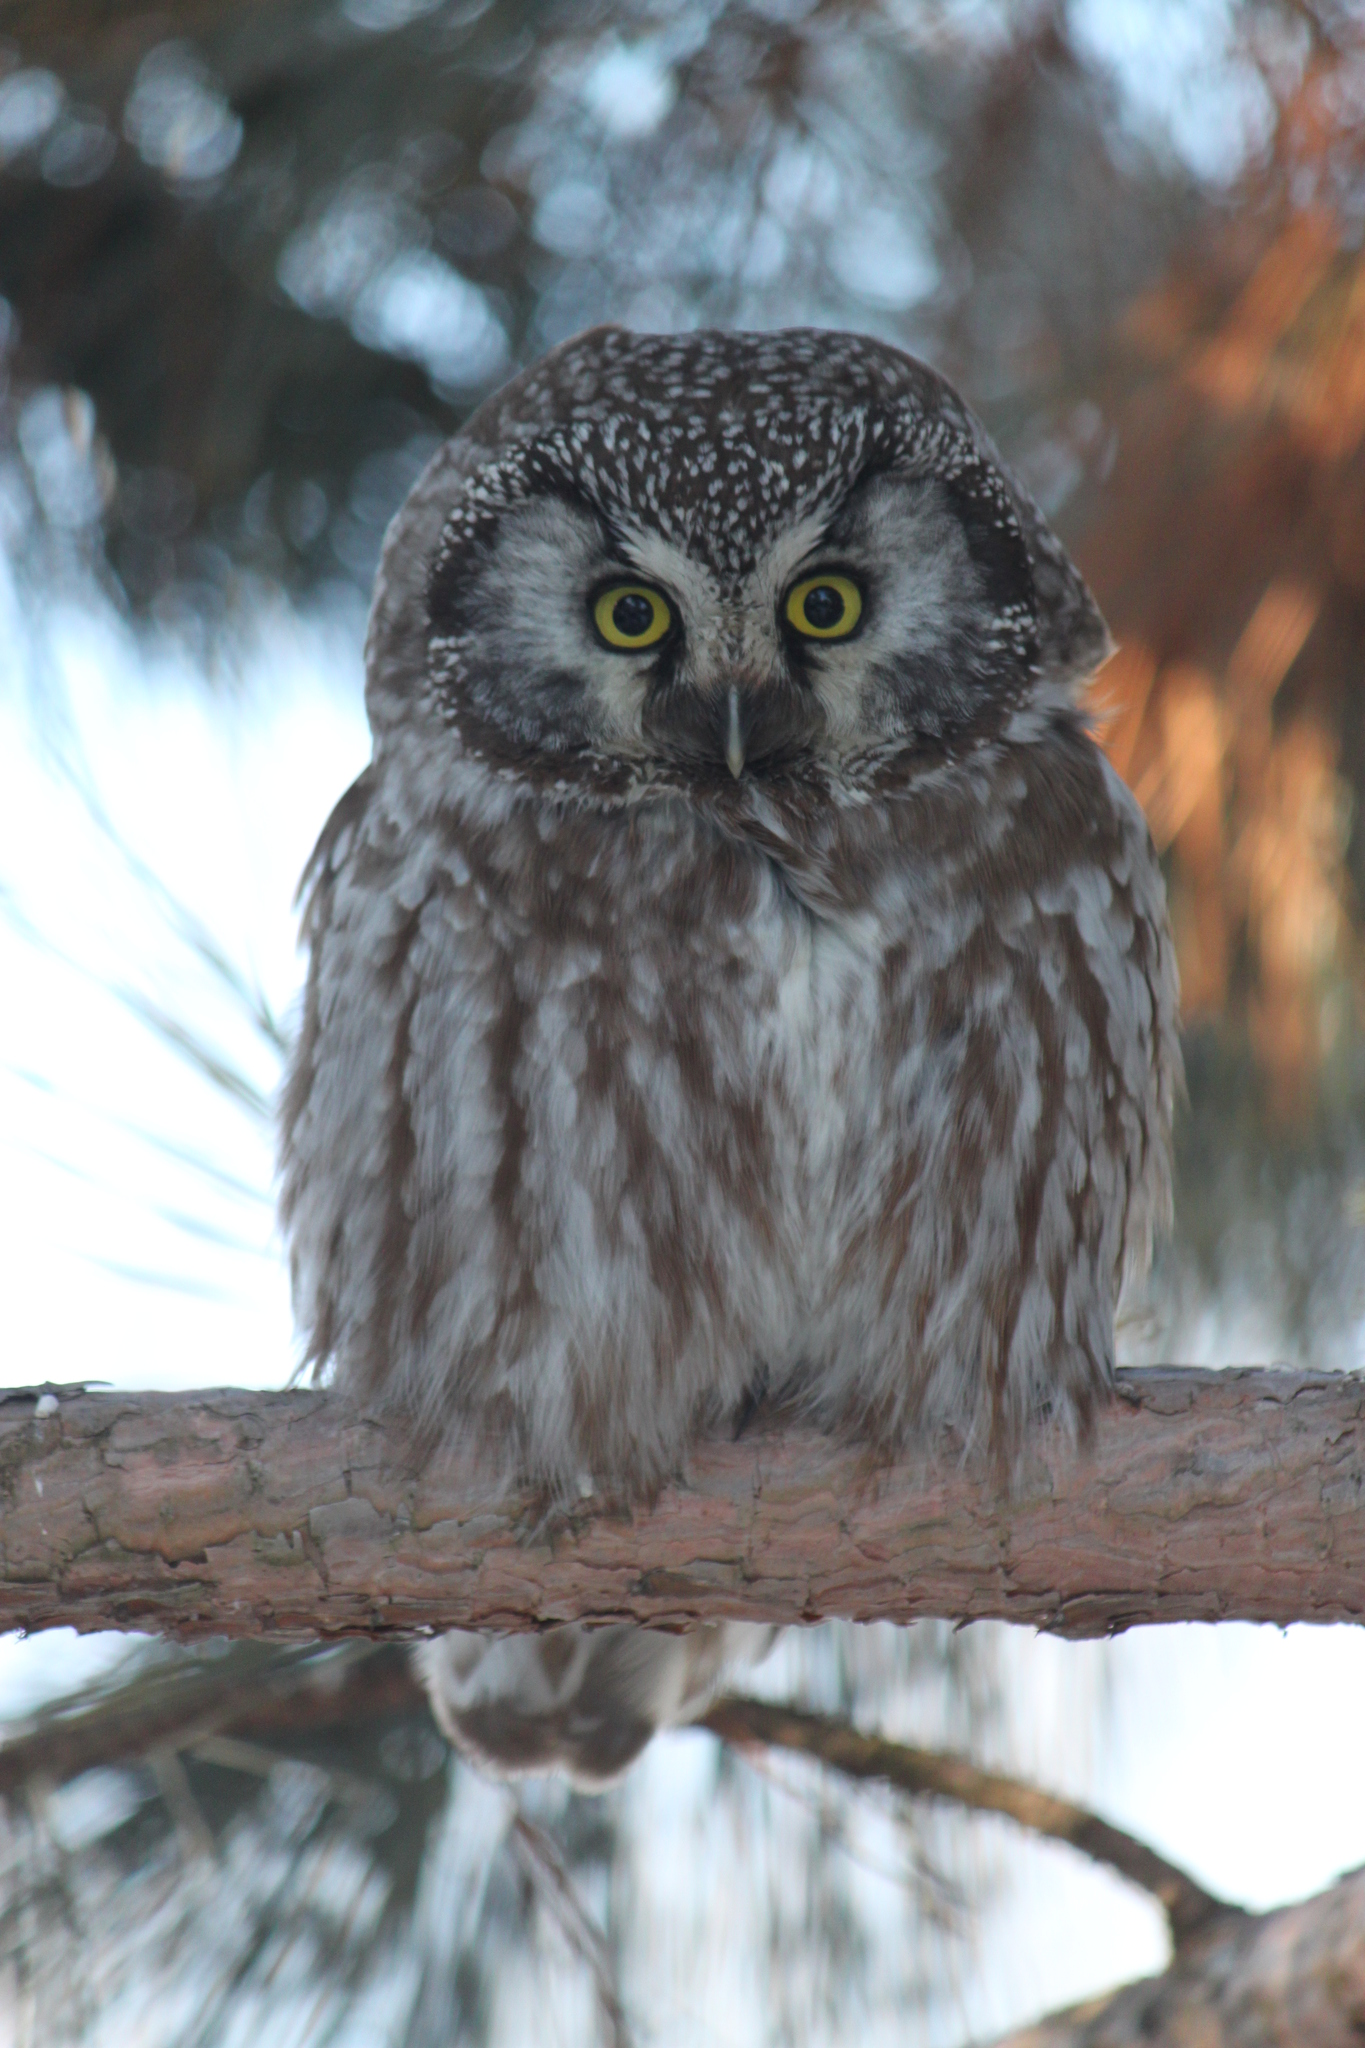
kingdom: Animalia
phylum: Chordata
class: Aves
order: Strigiformes
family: Strigidae
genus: Aegolius
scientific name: Aegolius funereus
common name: Boreal owl
